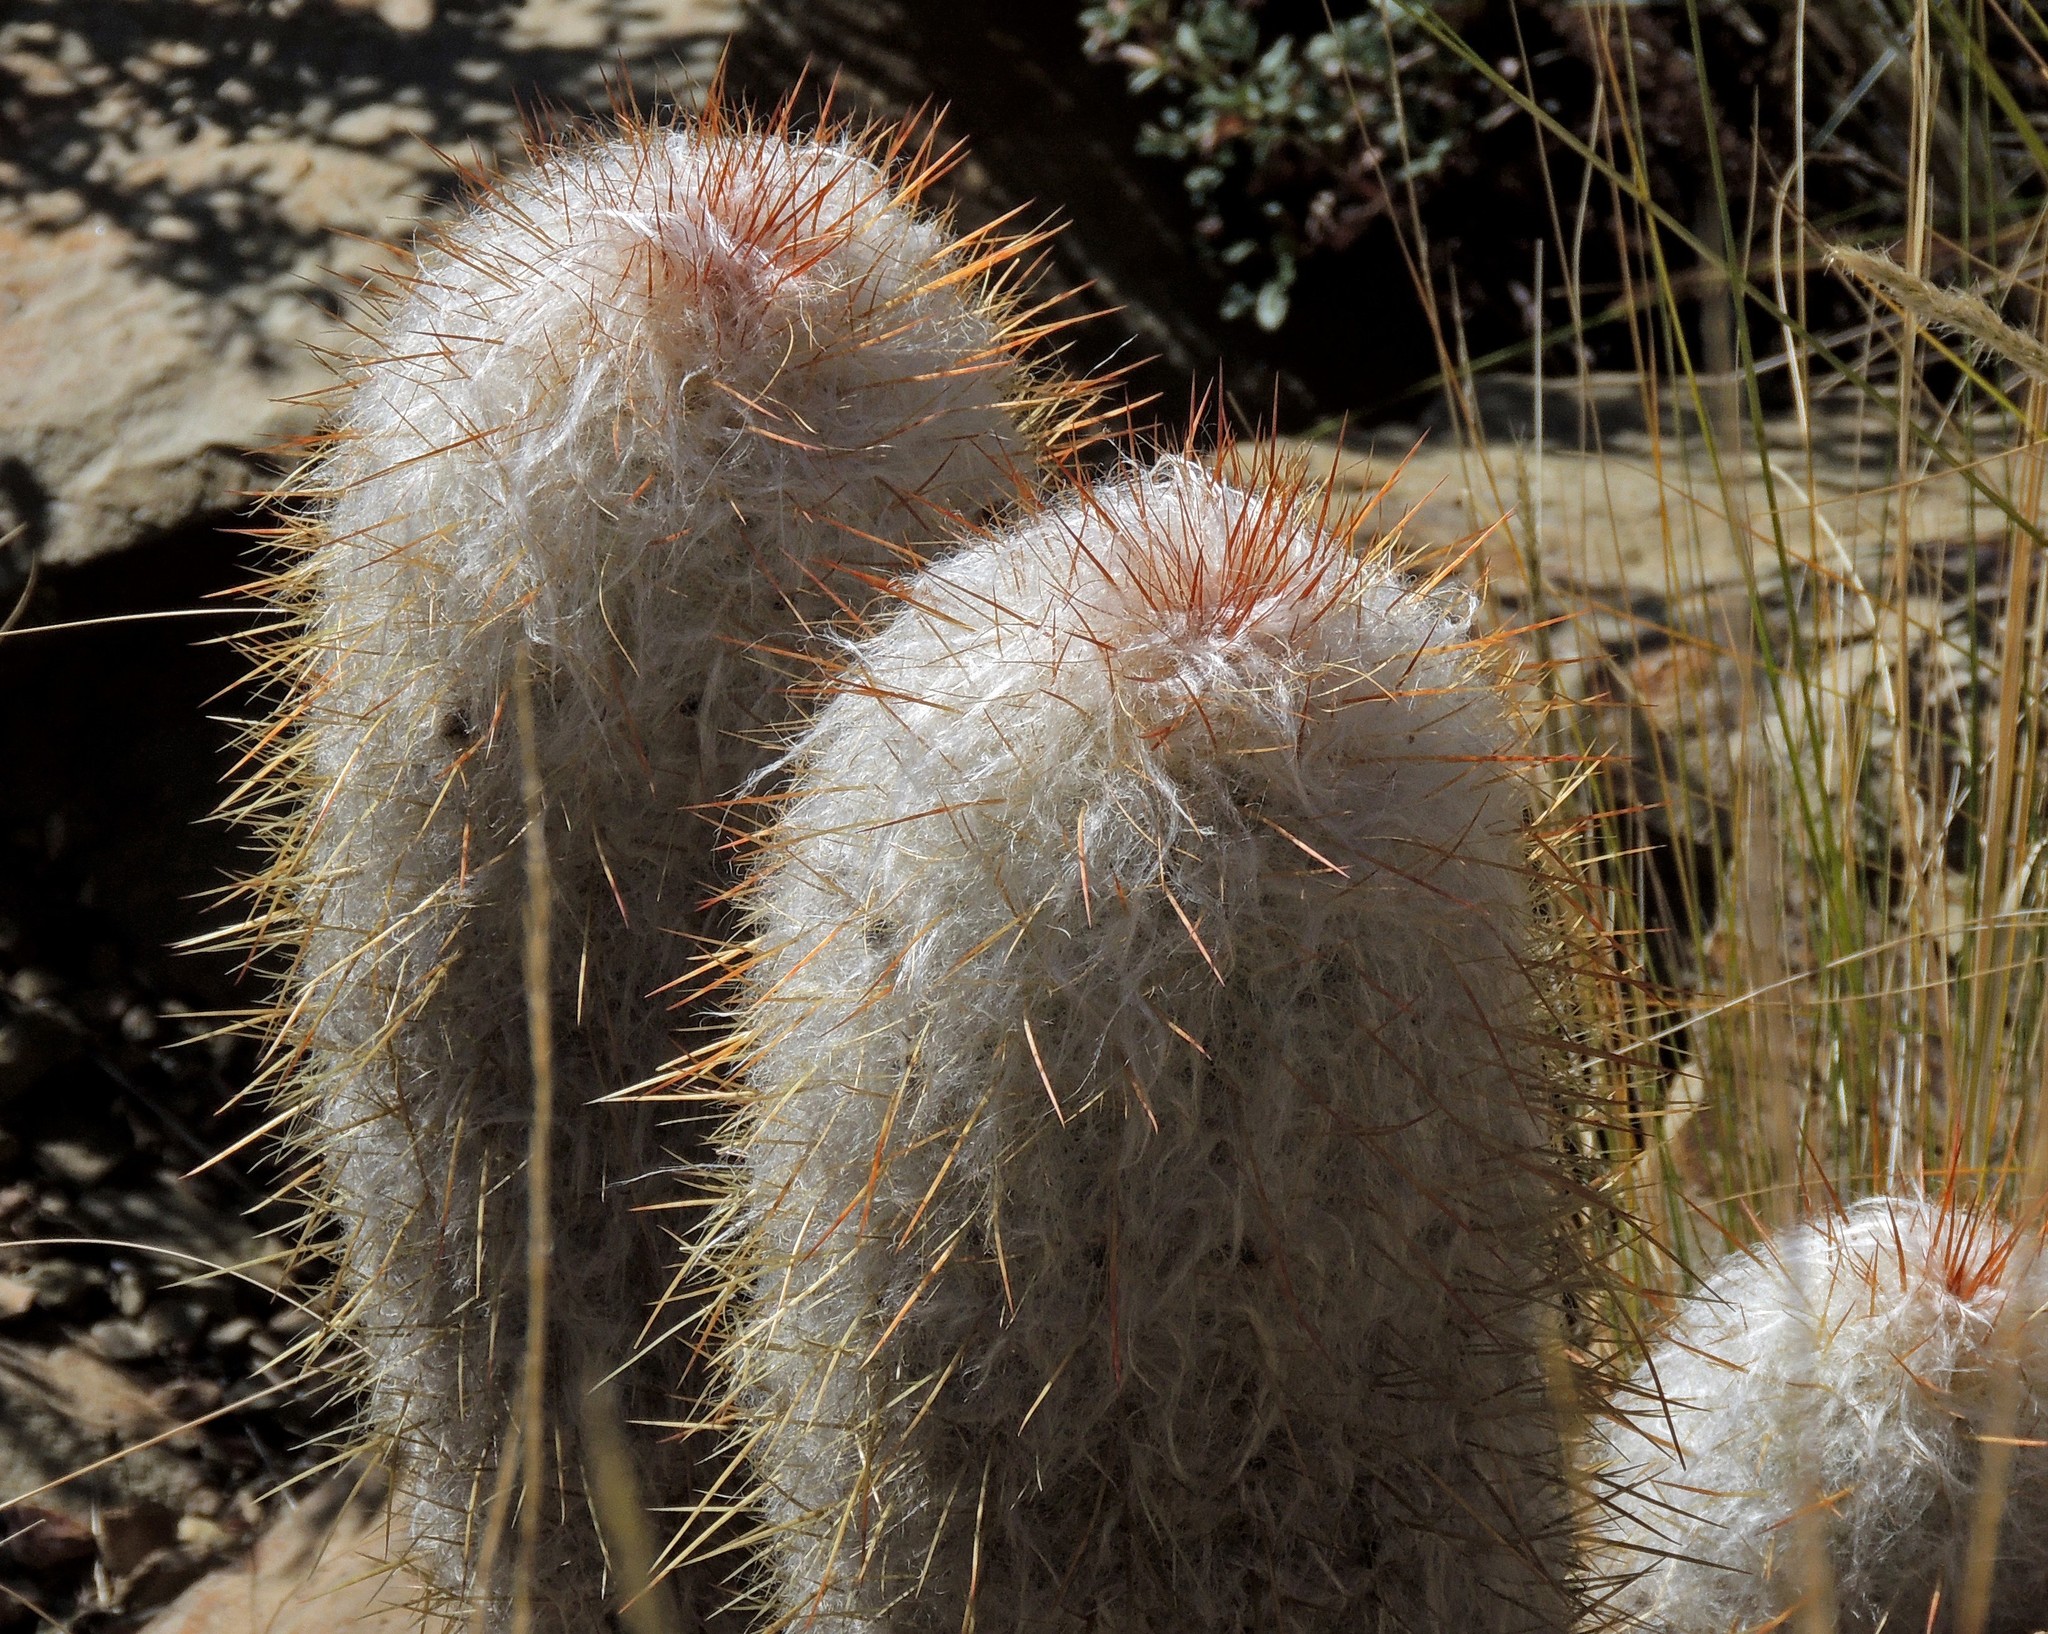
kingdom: Plantae
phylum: Tracheophyta
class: Magnoliopsida
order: Caryophyllales
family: Cactaceae
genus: Oreocereus
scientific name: Oreocereus trollii
